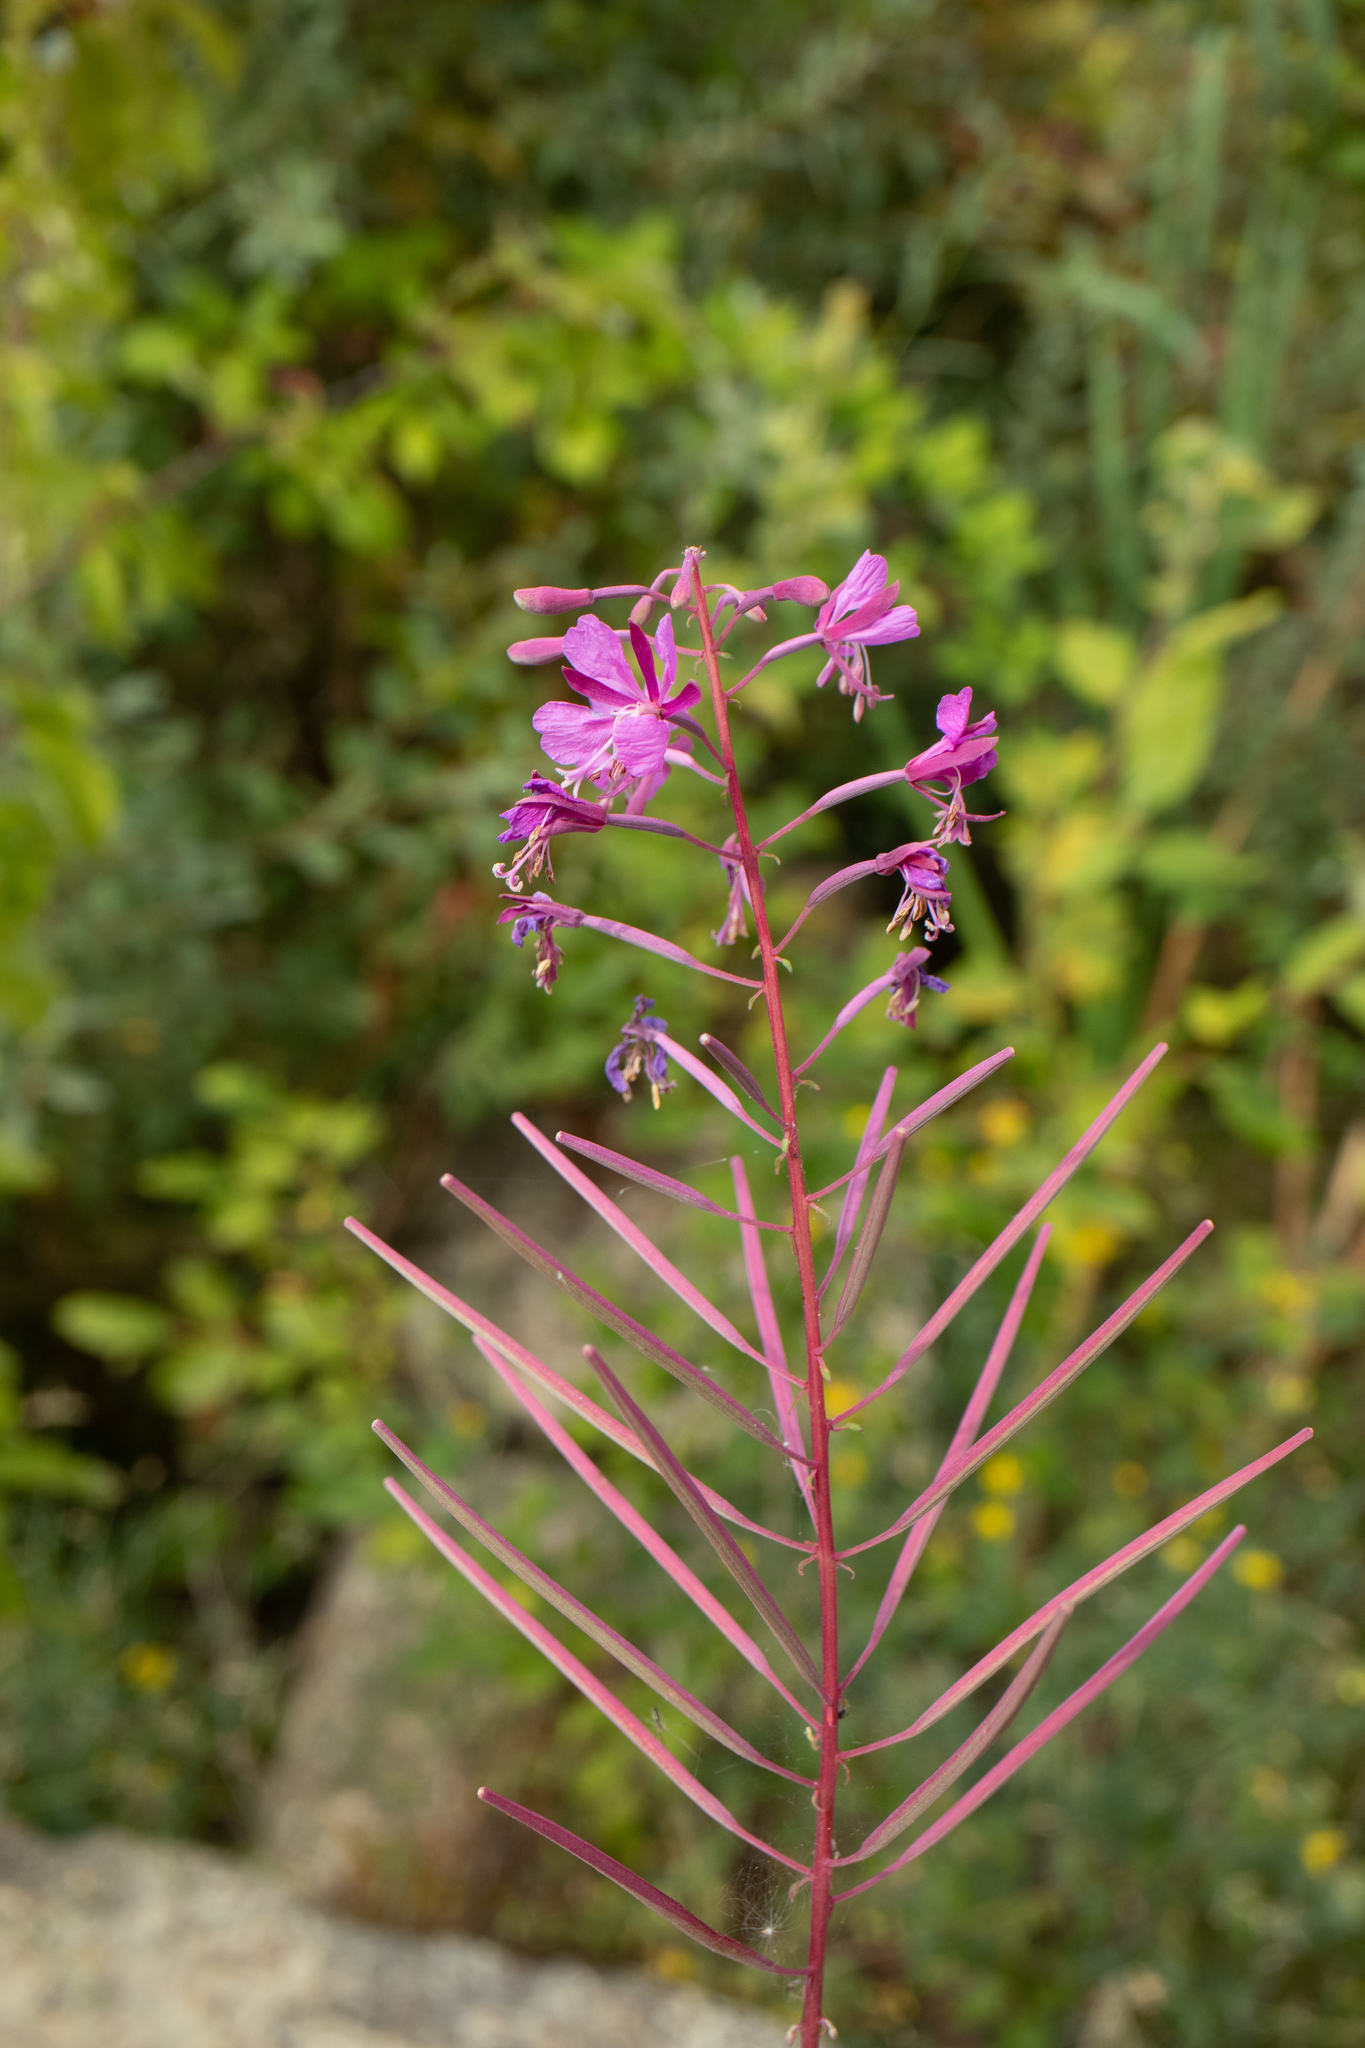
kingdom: Plantae
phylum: Tracheophyta
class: Magnoliopsida
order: Myrtales
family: Onagraceae
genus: Chamaenerion
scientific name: Chamaenerion angustifolium
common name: Fireweed
